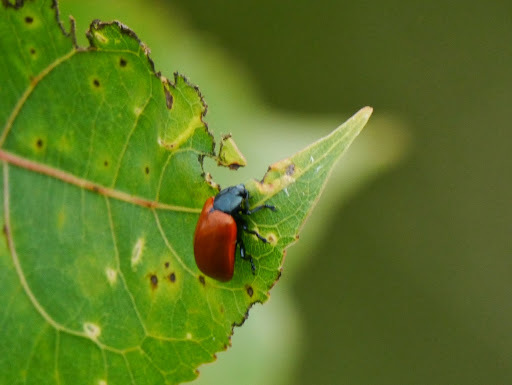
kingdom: Animalia
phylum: Arthropoda
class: Insecta
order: Coleoptera
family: Chrysomelidae
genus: Chrysomela
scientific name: Chrysomela populi
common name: Red poplar leaf beetle
